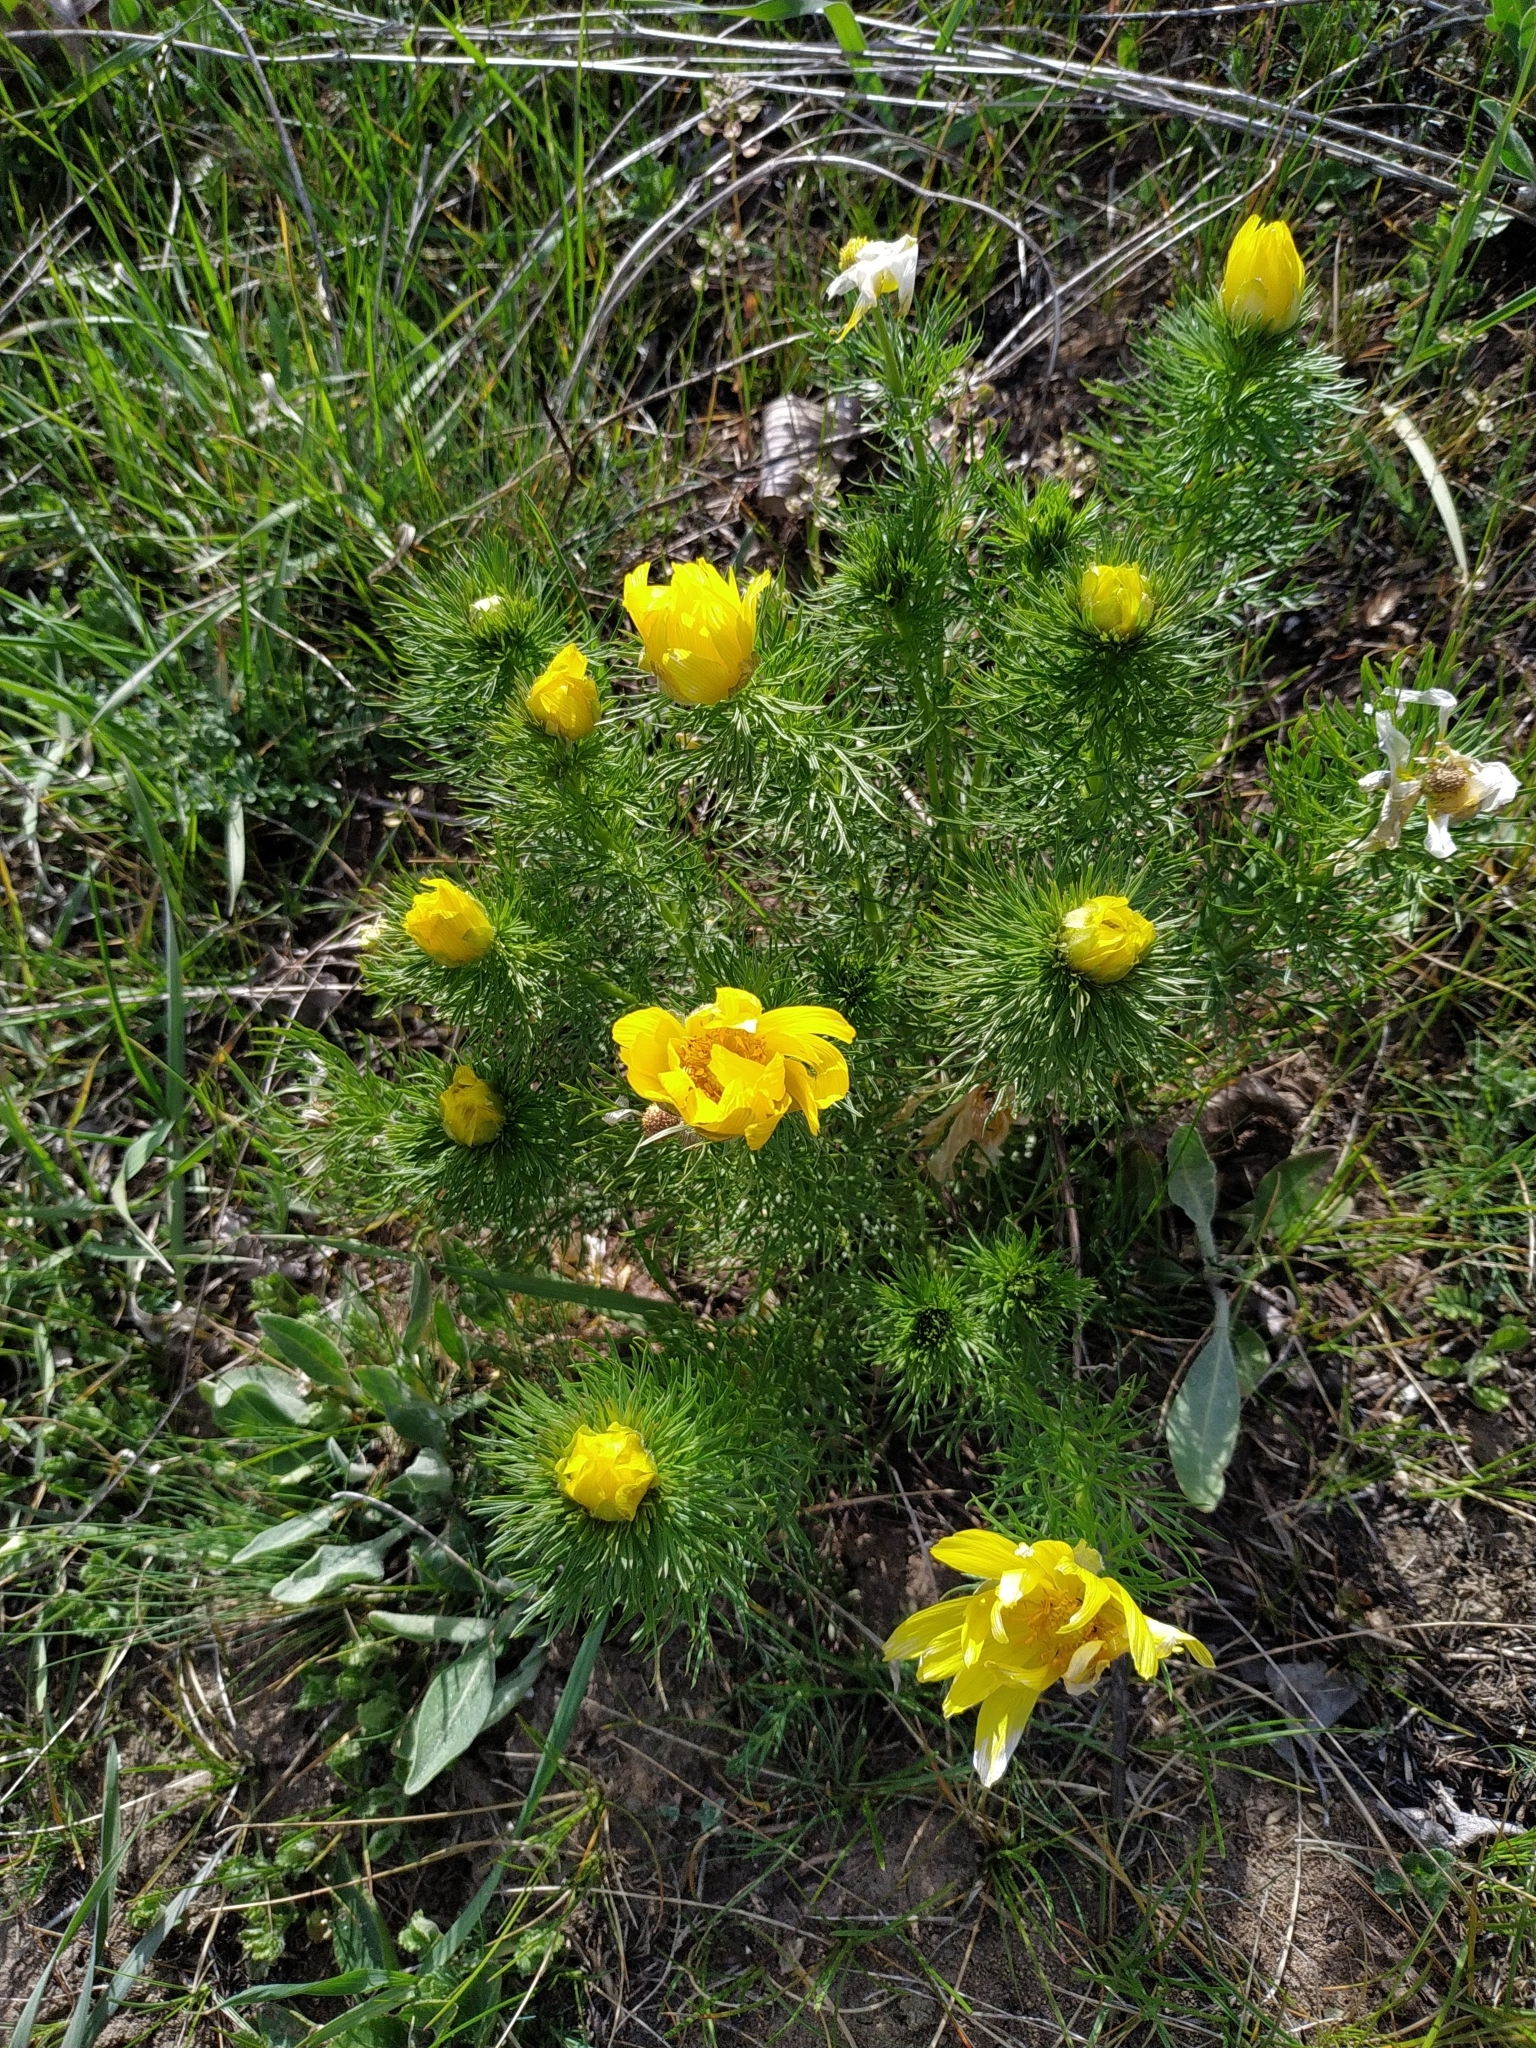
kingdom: Plantae
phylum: Tracheophyta
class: Magnoliopsida
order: Ranunculales
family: Ranunculaceae
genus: Adonis
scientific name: Adonis vernalis
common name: Yellow pheasants-eye
